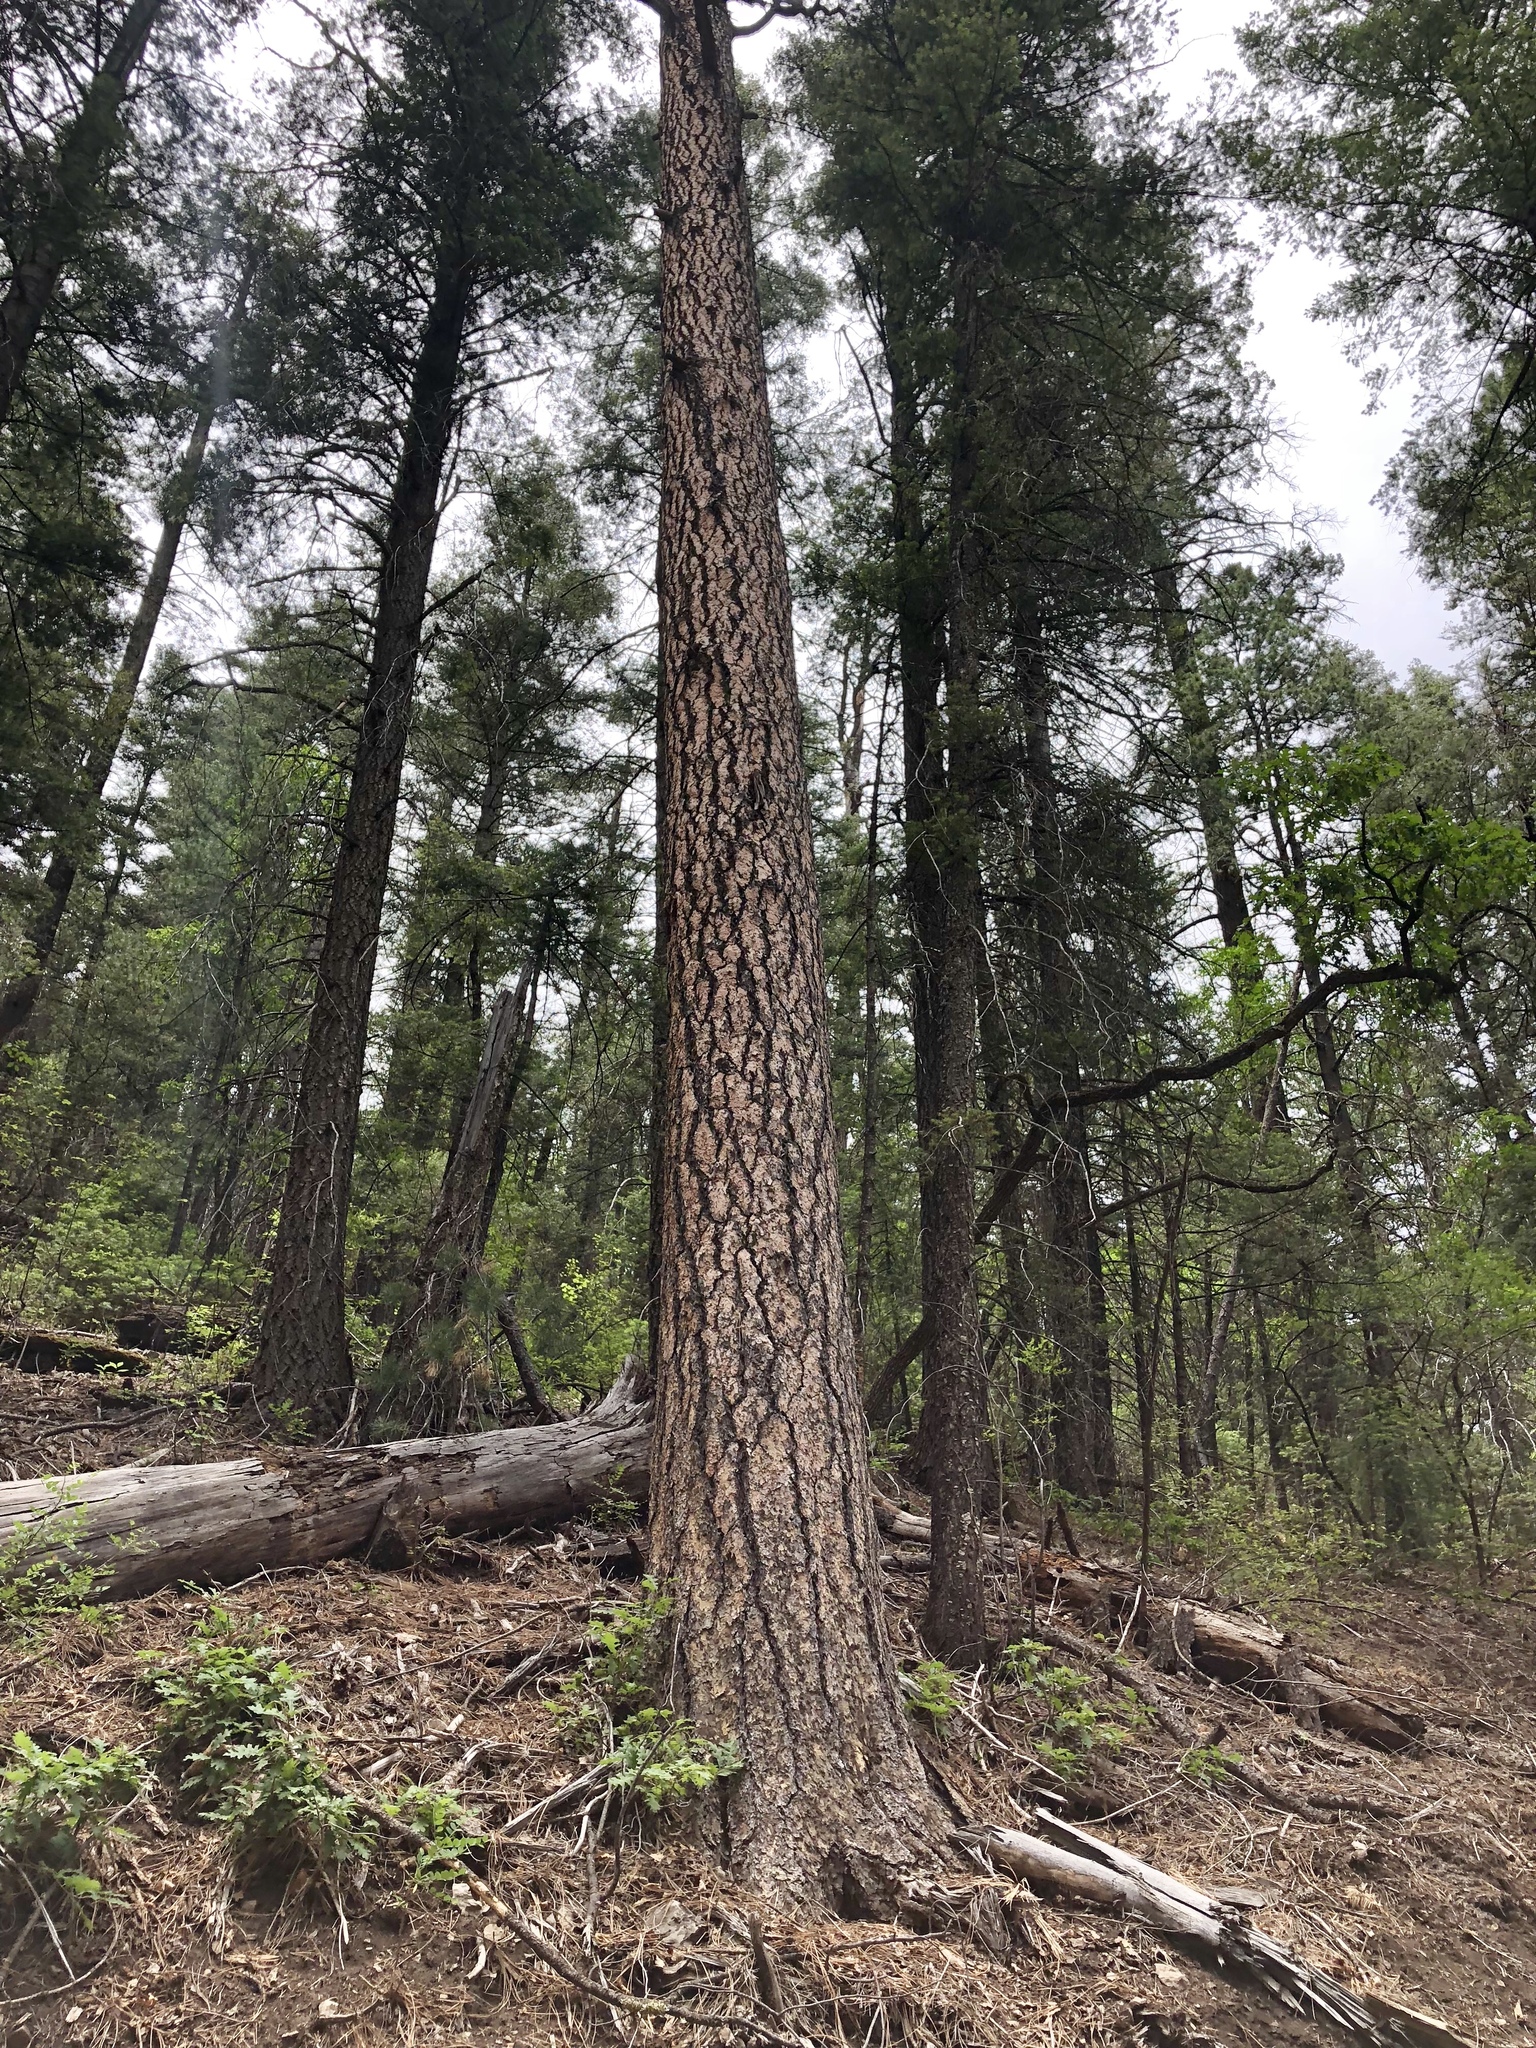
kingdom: Plantae
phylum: Tracheophyta
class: Pinopsida
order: Pinales
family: Pinaceae
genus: Pinus
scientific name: Pinus ponderosa
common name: Western yellow-pine
